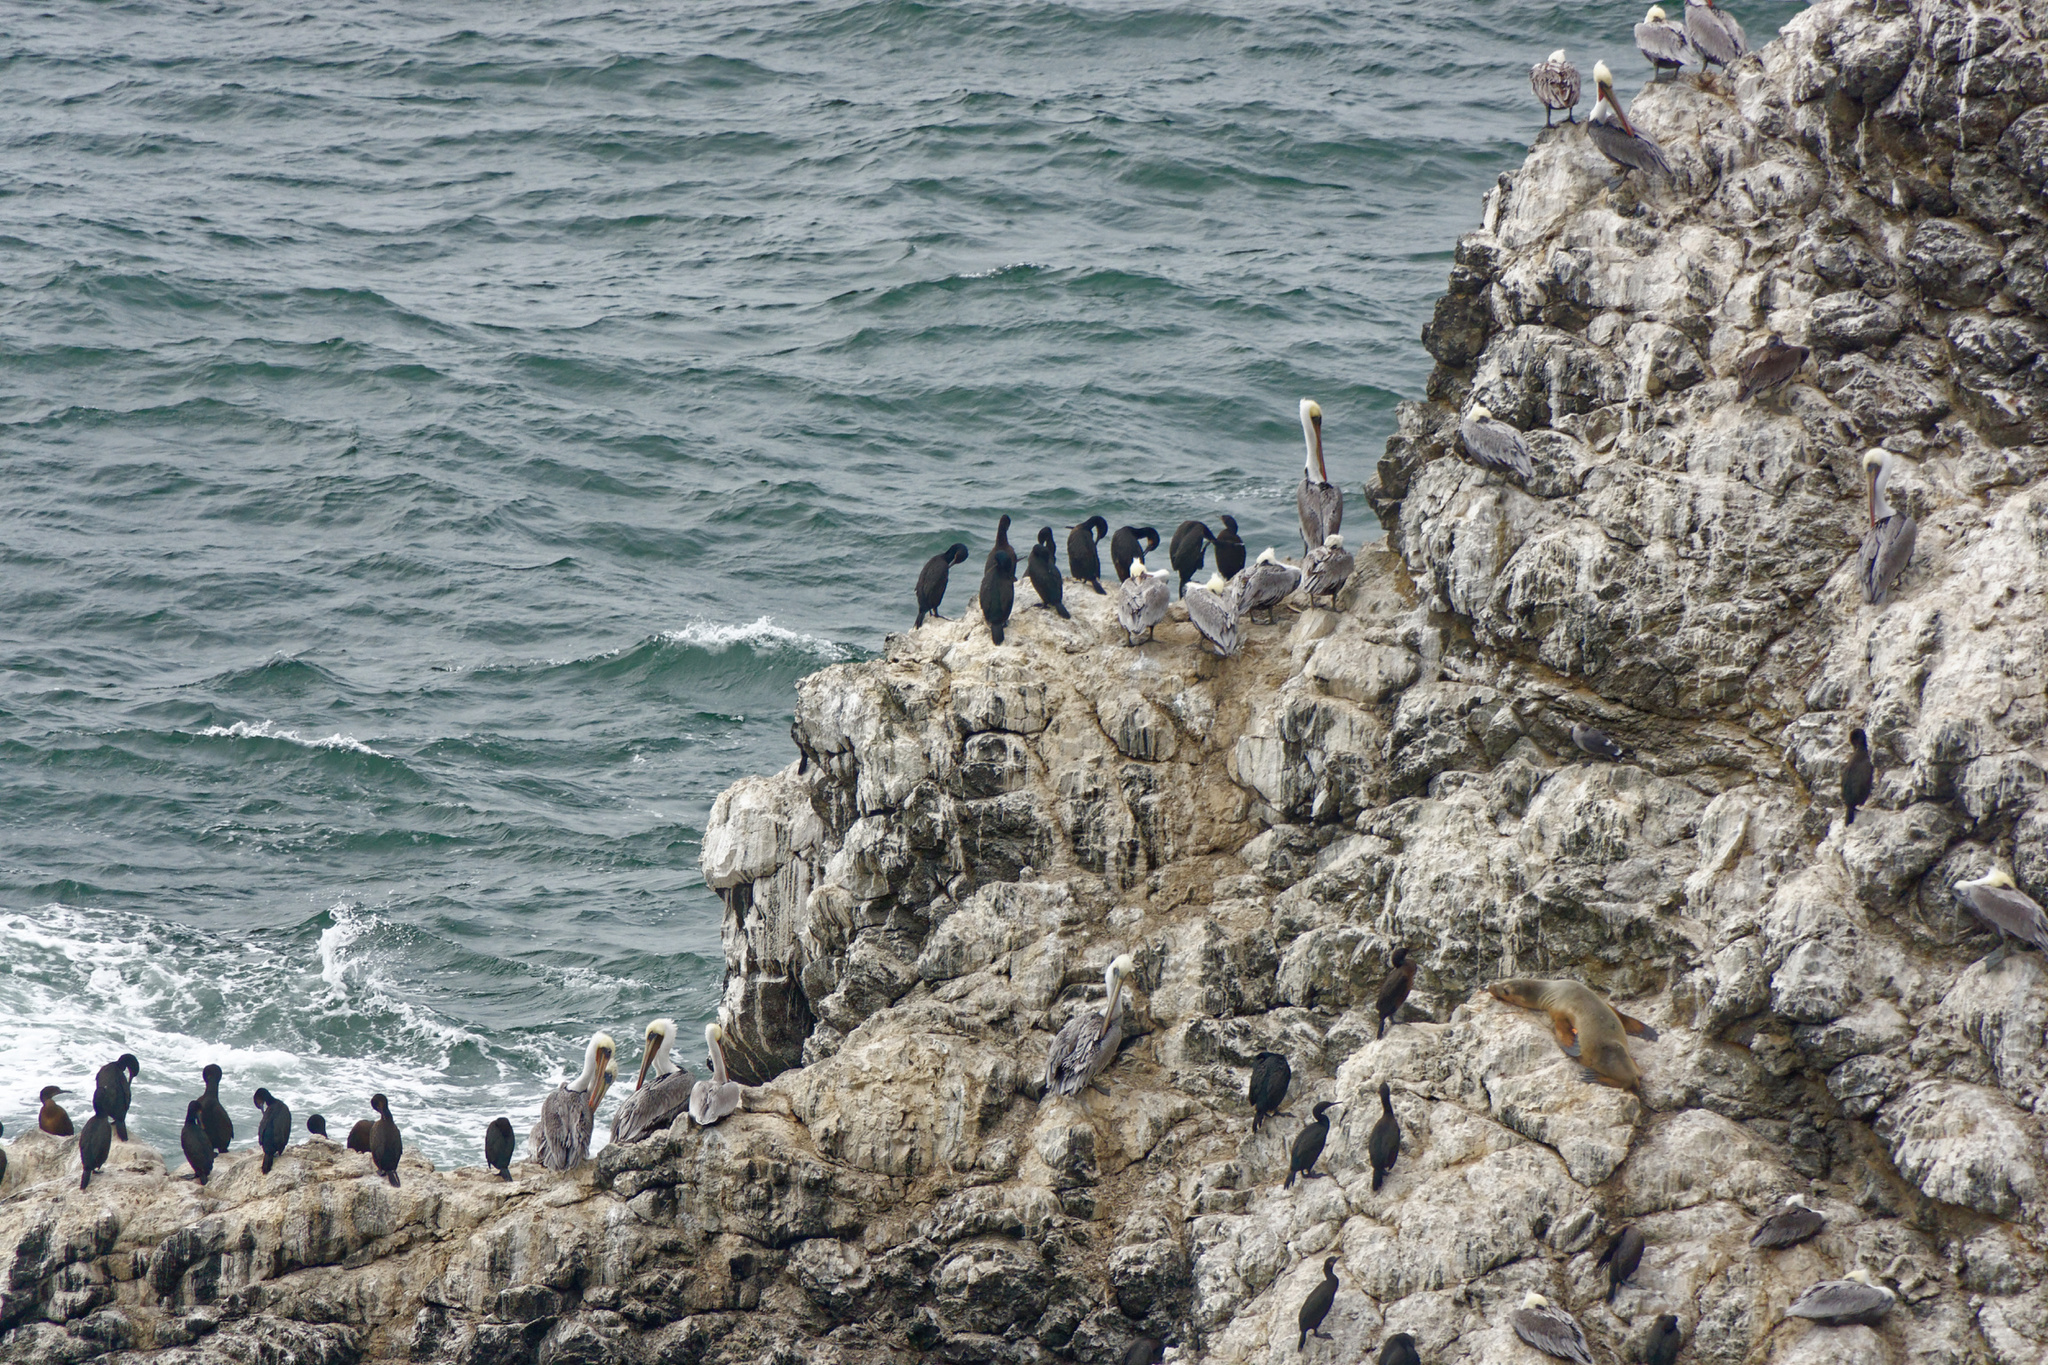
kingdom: Animalia
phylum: Chordata
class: Aves
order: Suliformes
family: Phalacrocoracidae
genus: Urile
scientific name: Urile penicillatus
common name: Brandt's cormorant
